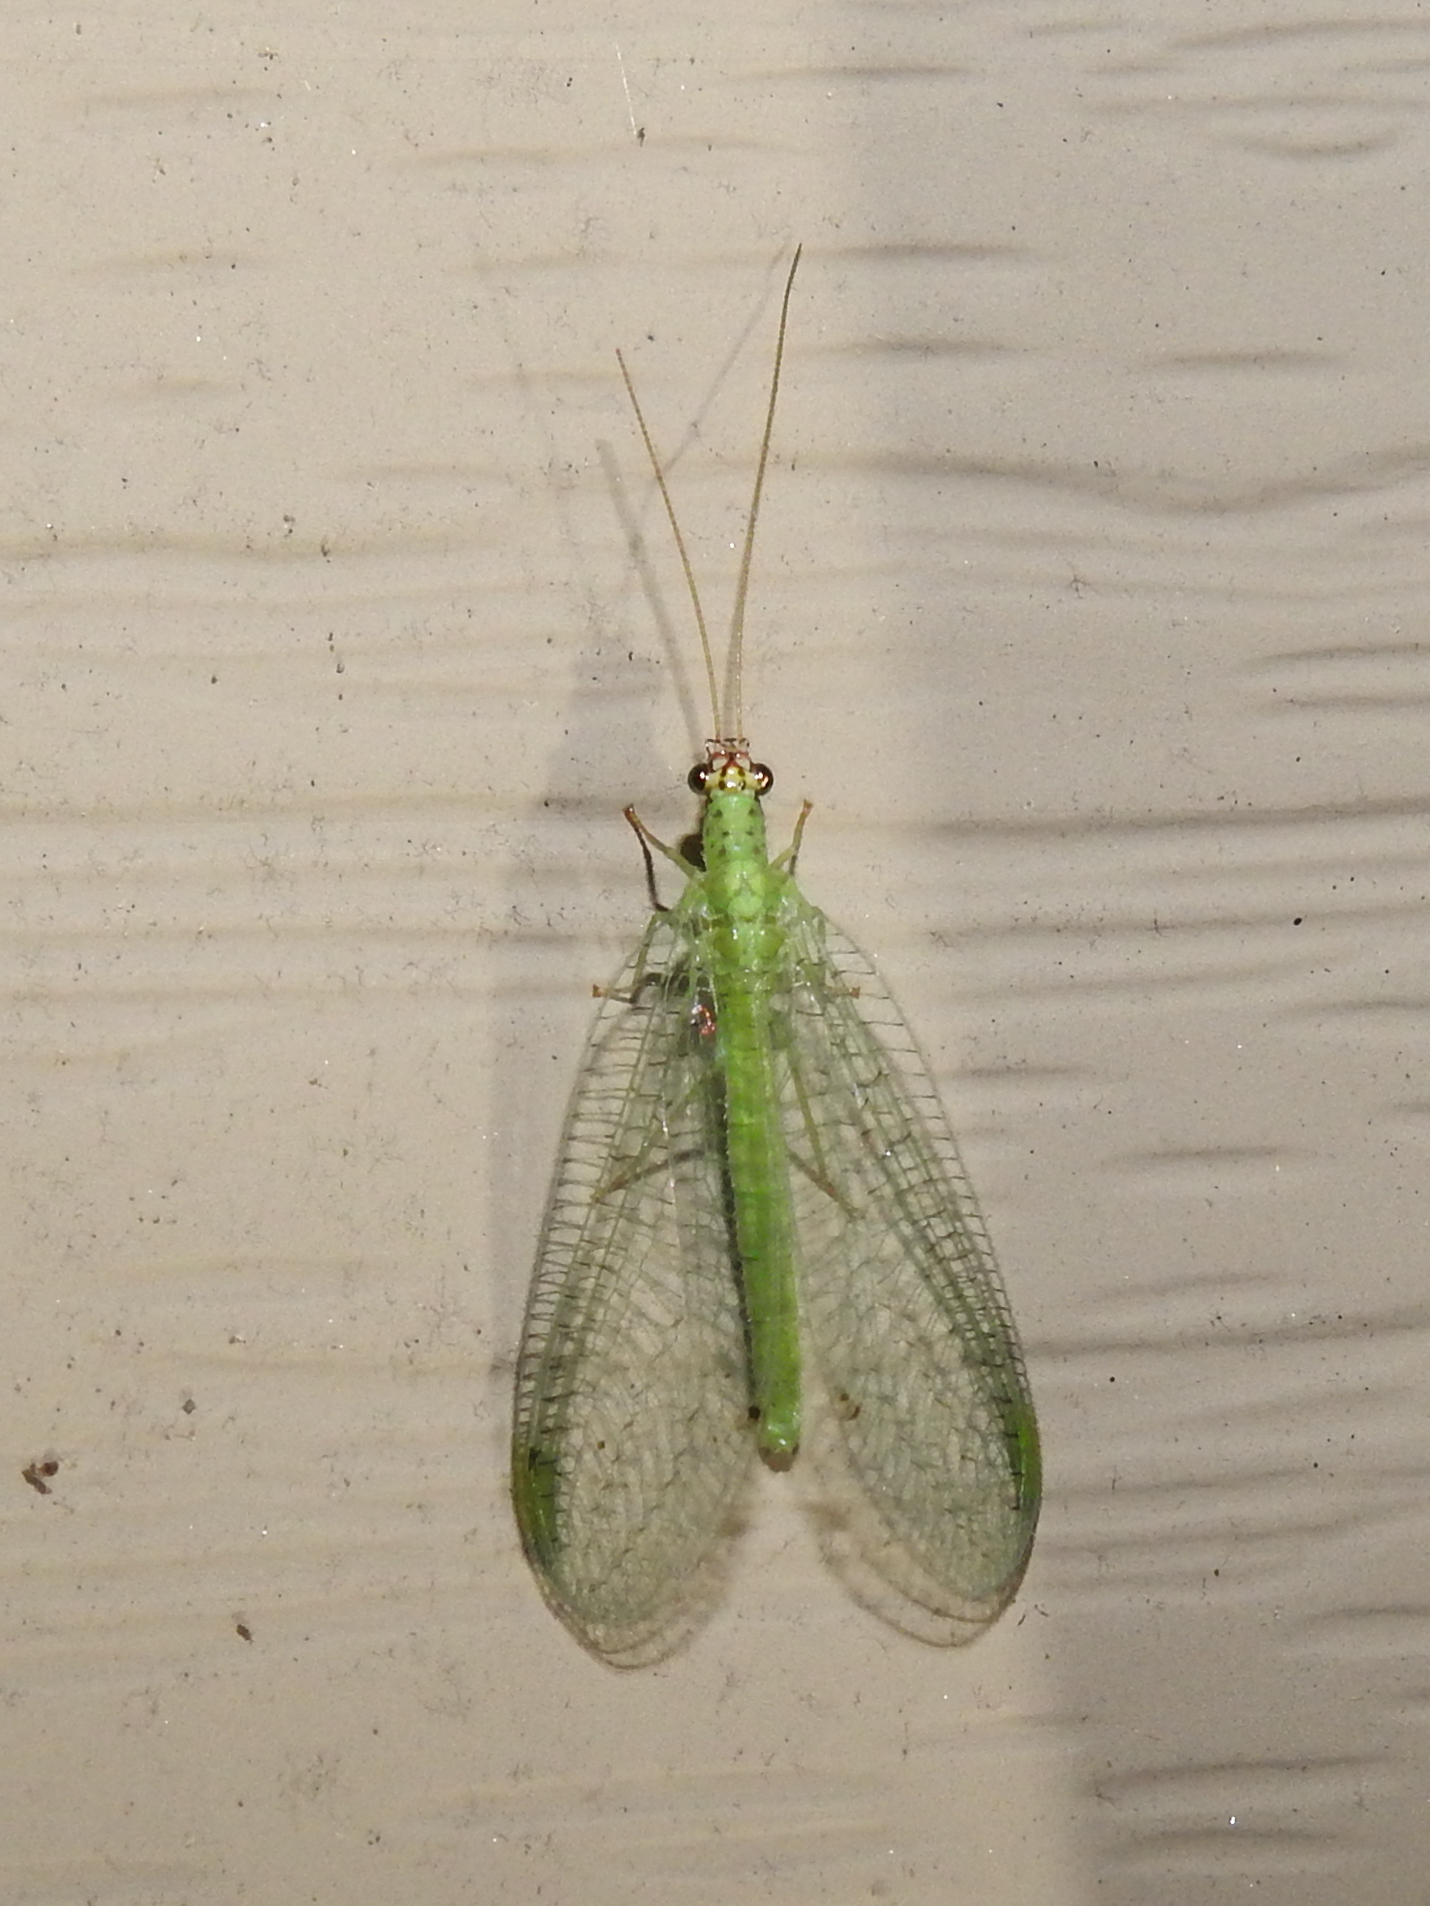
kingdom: Animalia
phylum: Arthropoda
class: Insecta
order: Neuroptera
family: Chrysopidae
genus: Chrysopa
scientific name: Chrysopa oculata
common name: Golden-eyed lacewing
